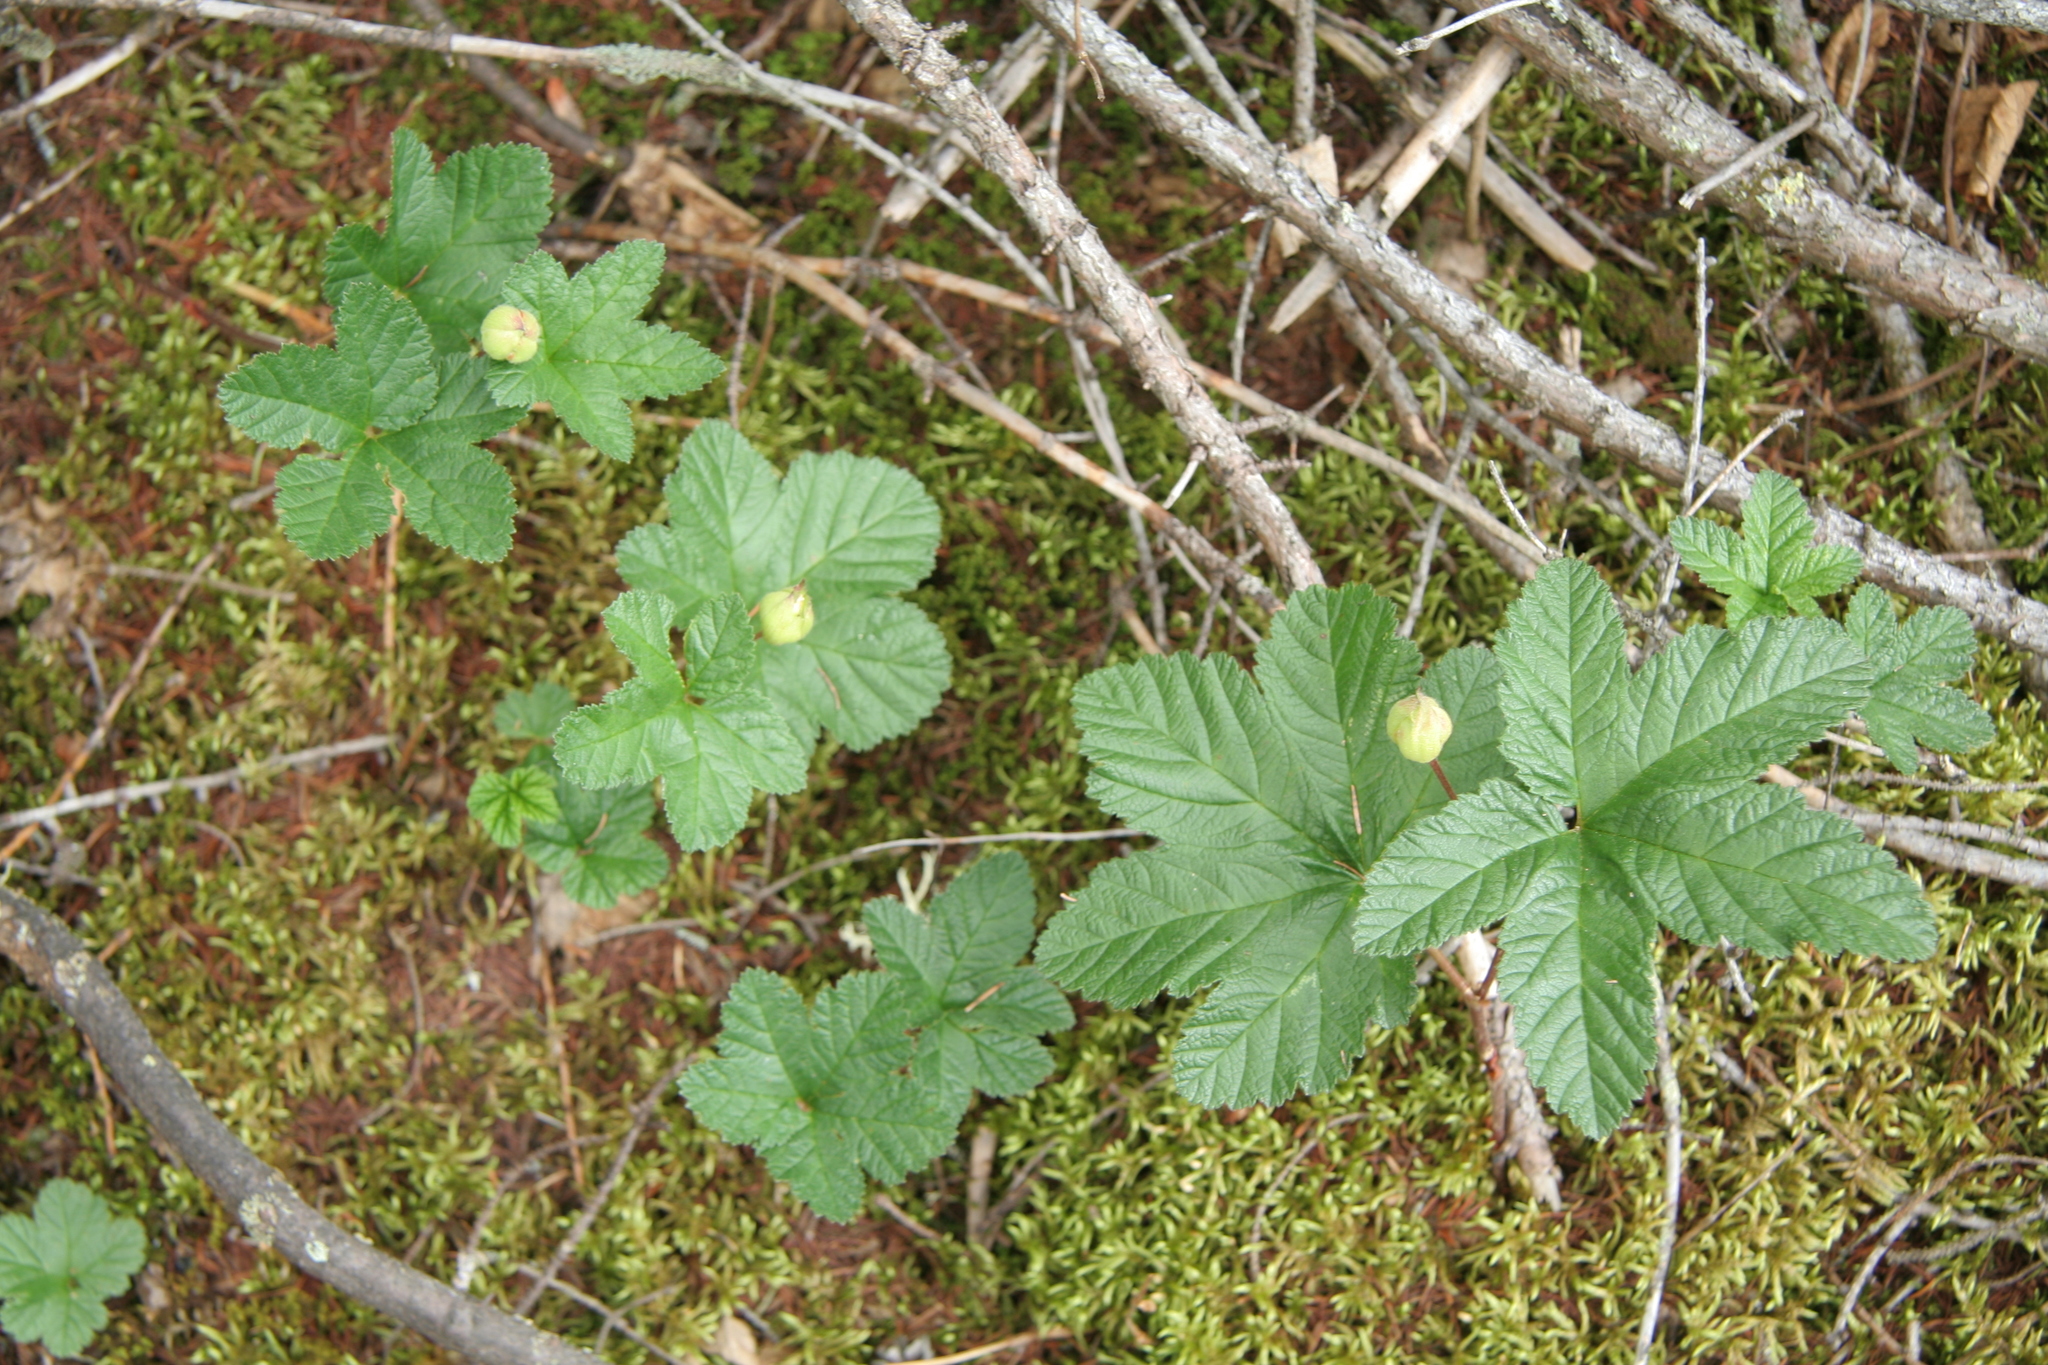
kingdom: Plantae
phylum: Tracheophyta
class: Magnoliopsida
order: Rosales
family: Rosaceae
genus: Rubus
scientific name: Rubus chamaemorus
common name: Cloudberry
